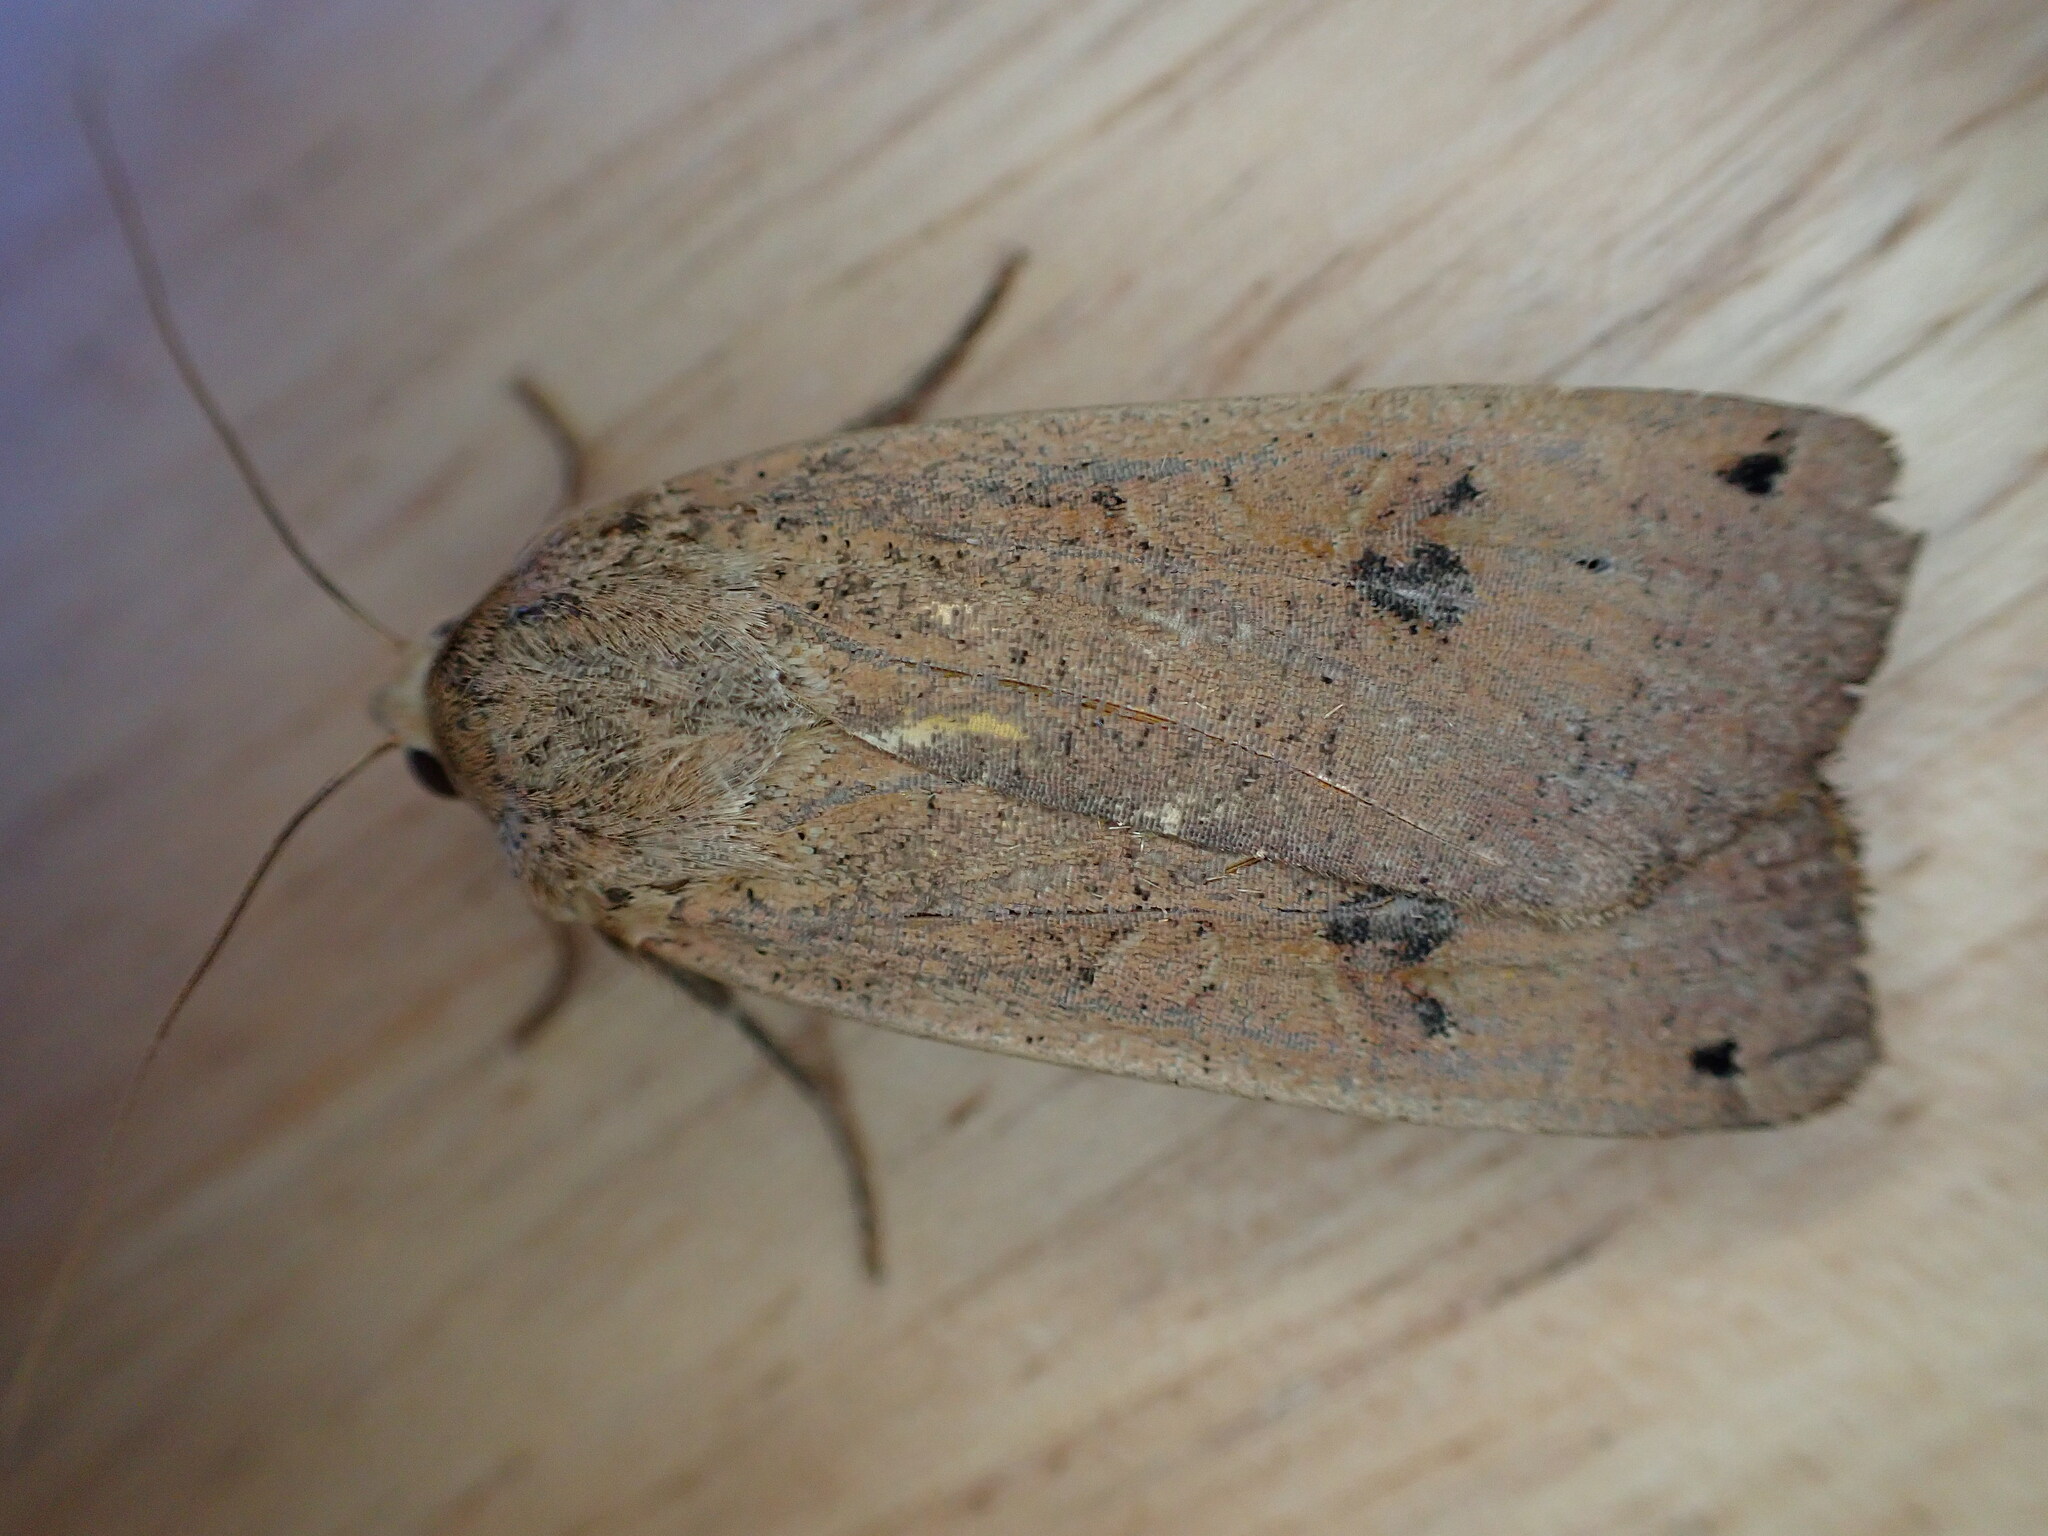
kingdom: Animalia
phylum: Arthropoda
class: Insecta
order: Lepidoptera
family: Noctuidae
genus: Noctua
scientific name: Noctua pronuba
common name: Large yellow underwing
